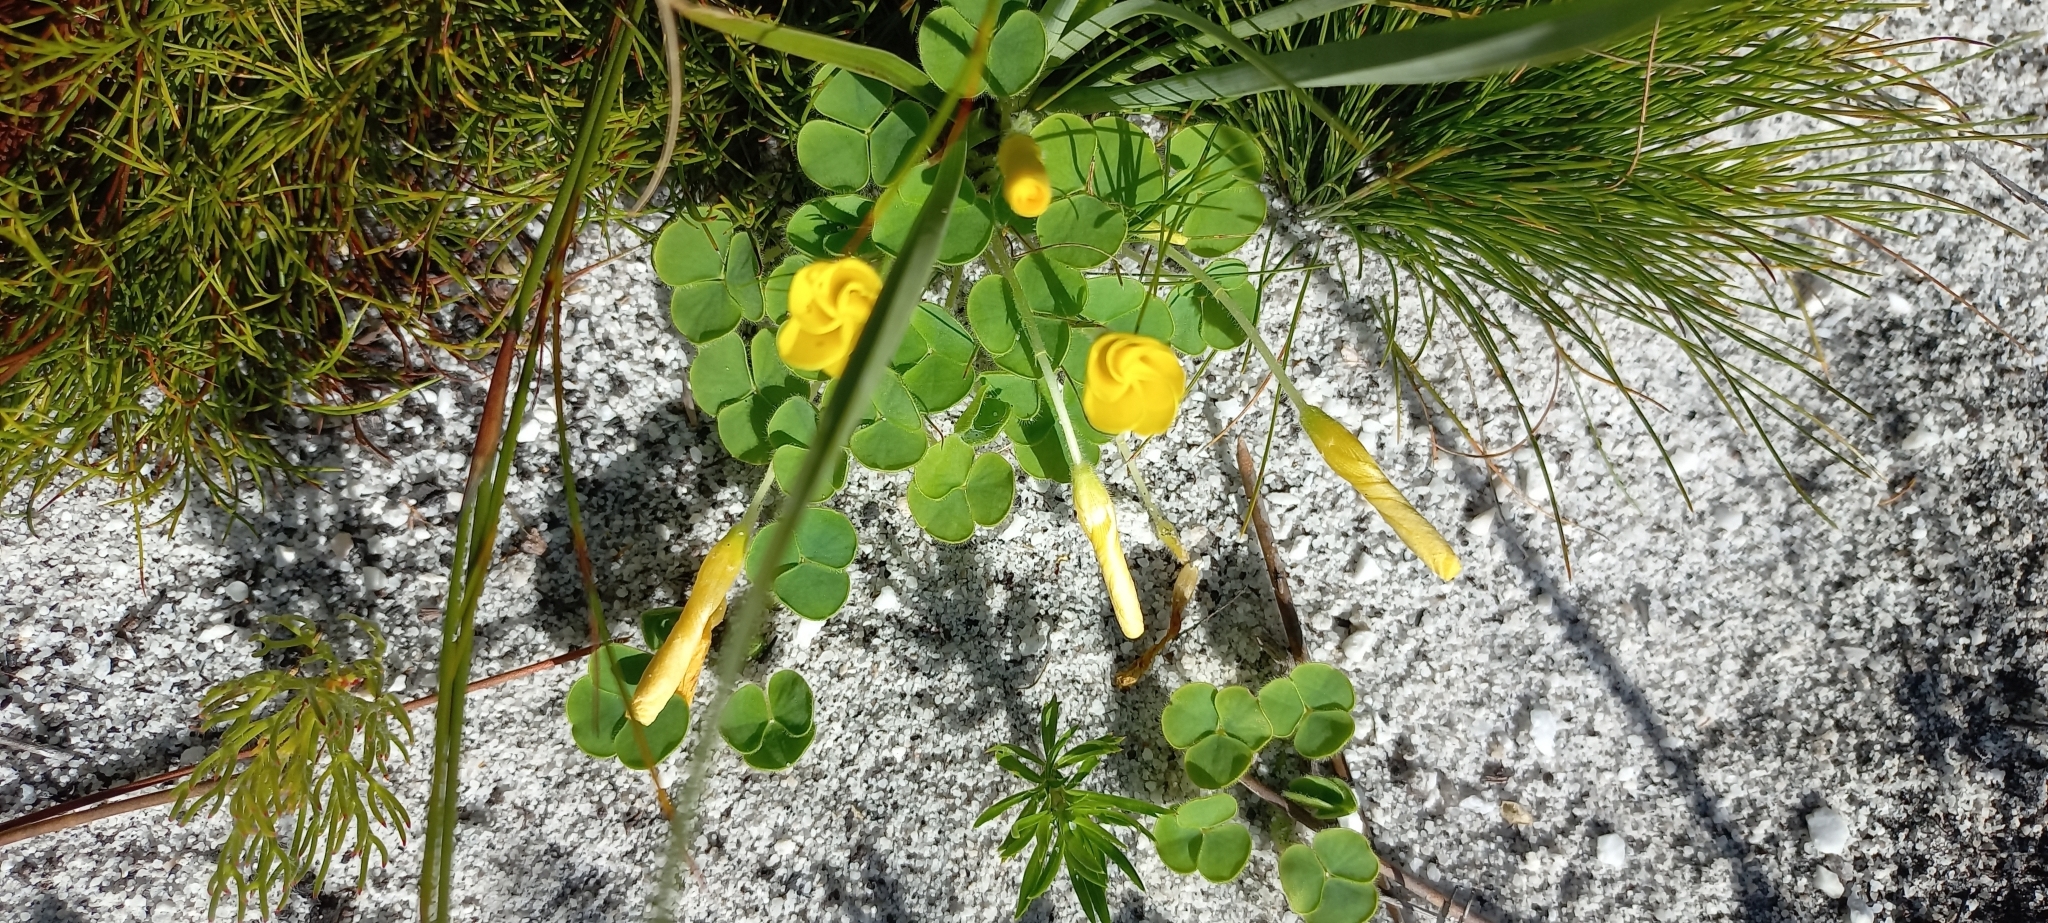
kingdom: Plantae
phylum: Tracheophyta
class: Magnoliopsida
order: Oxalidales
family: Oxalidaceae
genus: Oxalis
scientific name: Oxalis luteola
